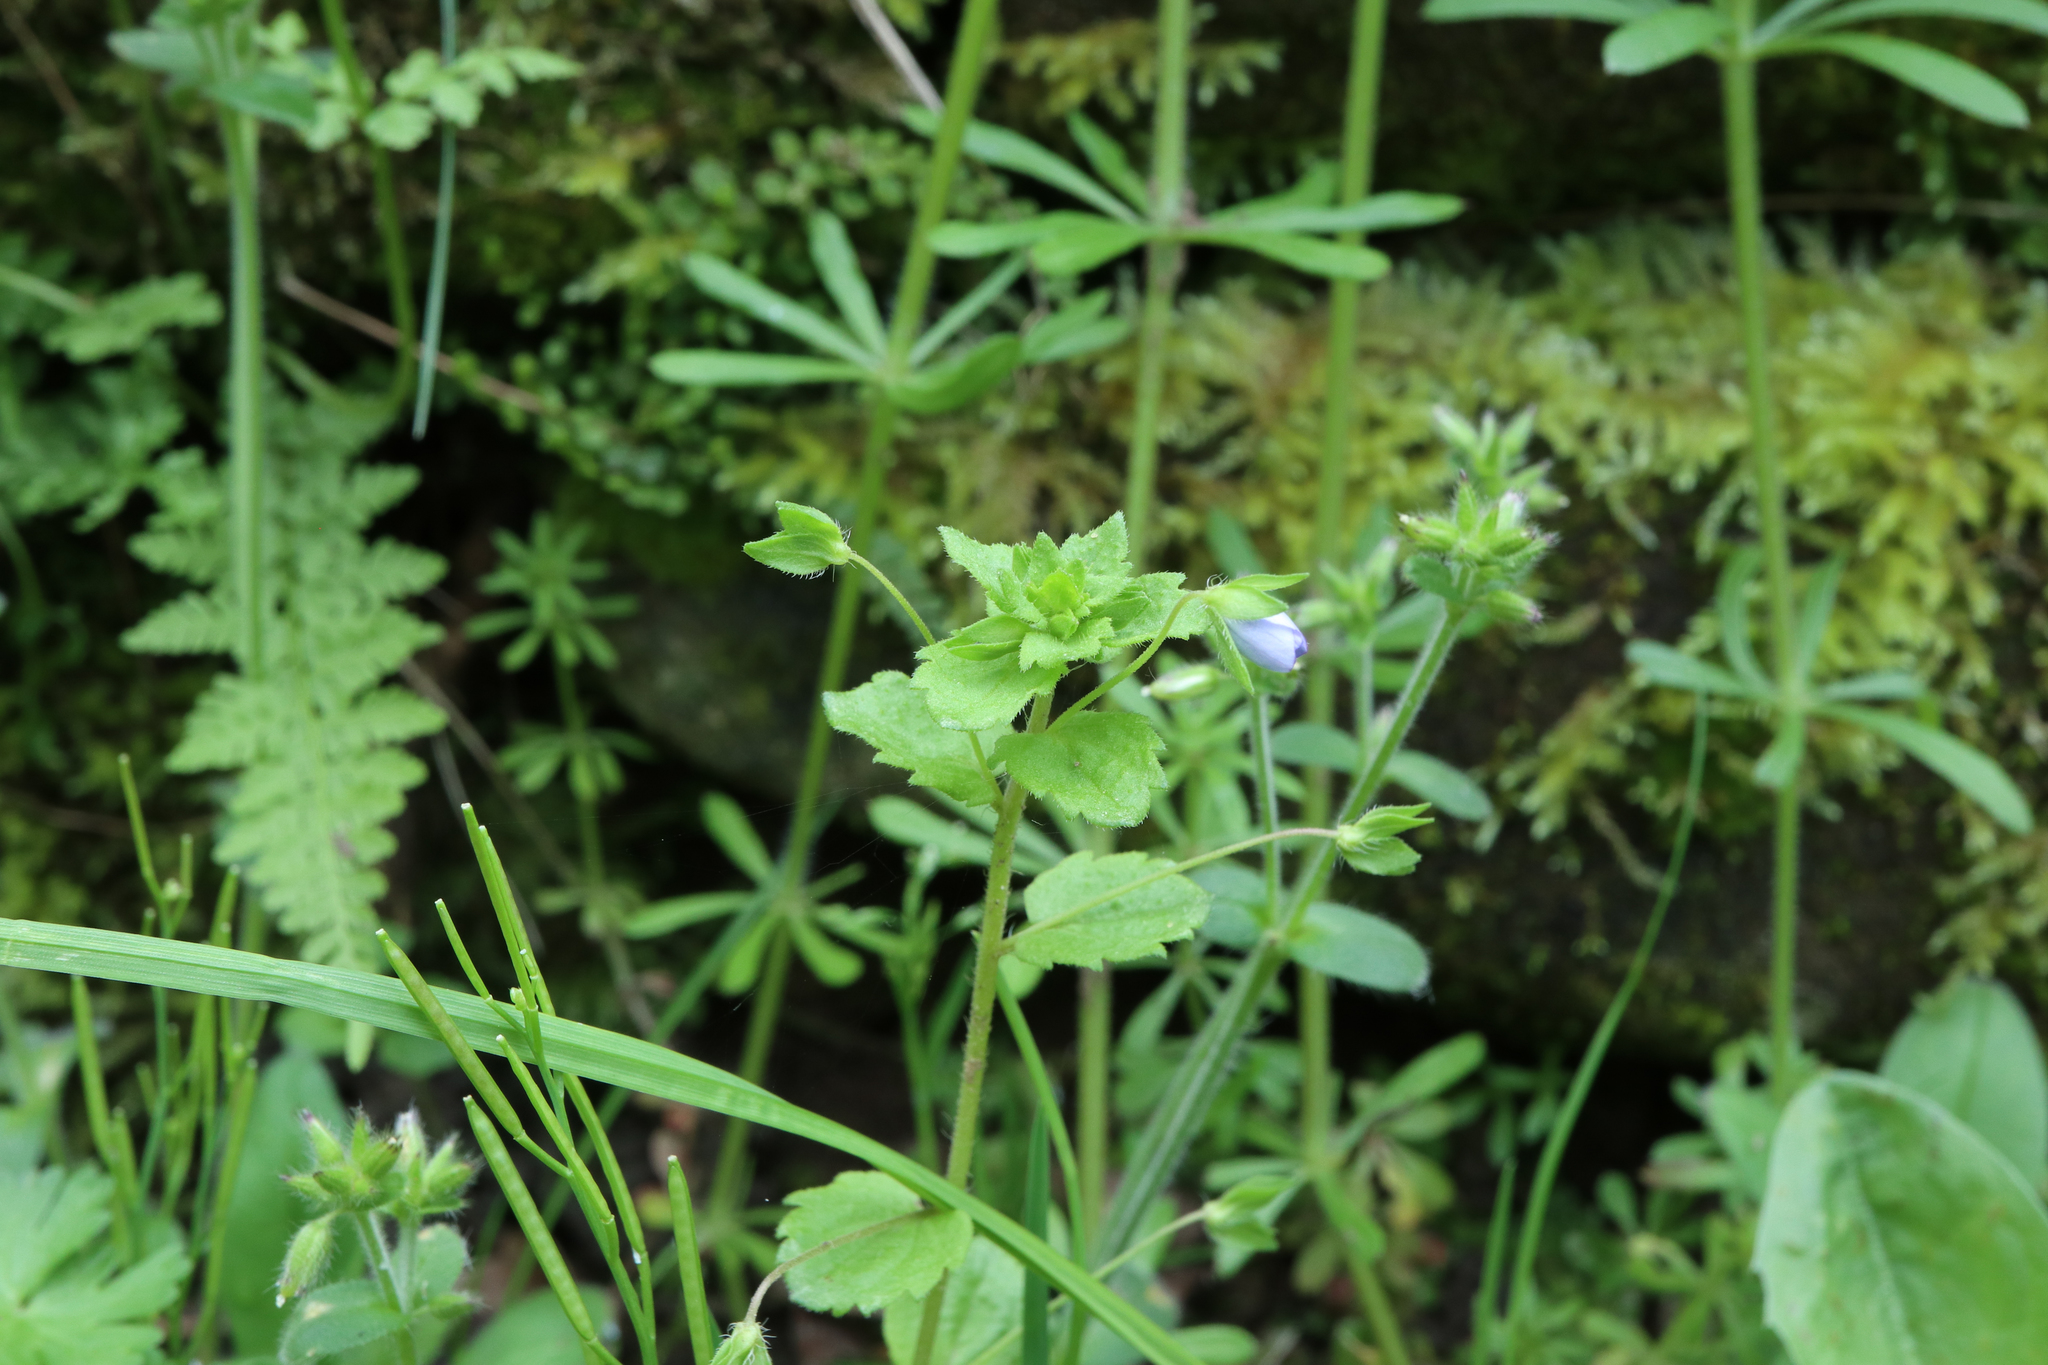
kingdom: Plantae
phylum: Tracheophyta
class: Magnoliopsida
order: Lamiales
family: Plantaginaceae
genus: Veronica
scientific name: Veronica persica
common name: Common field-speedwell
